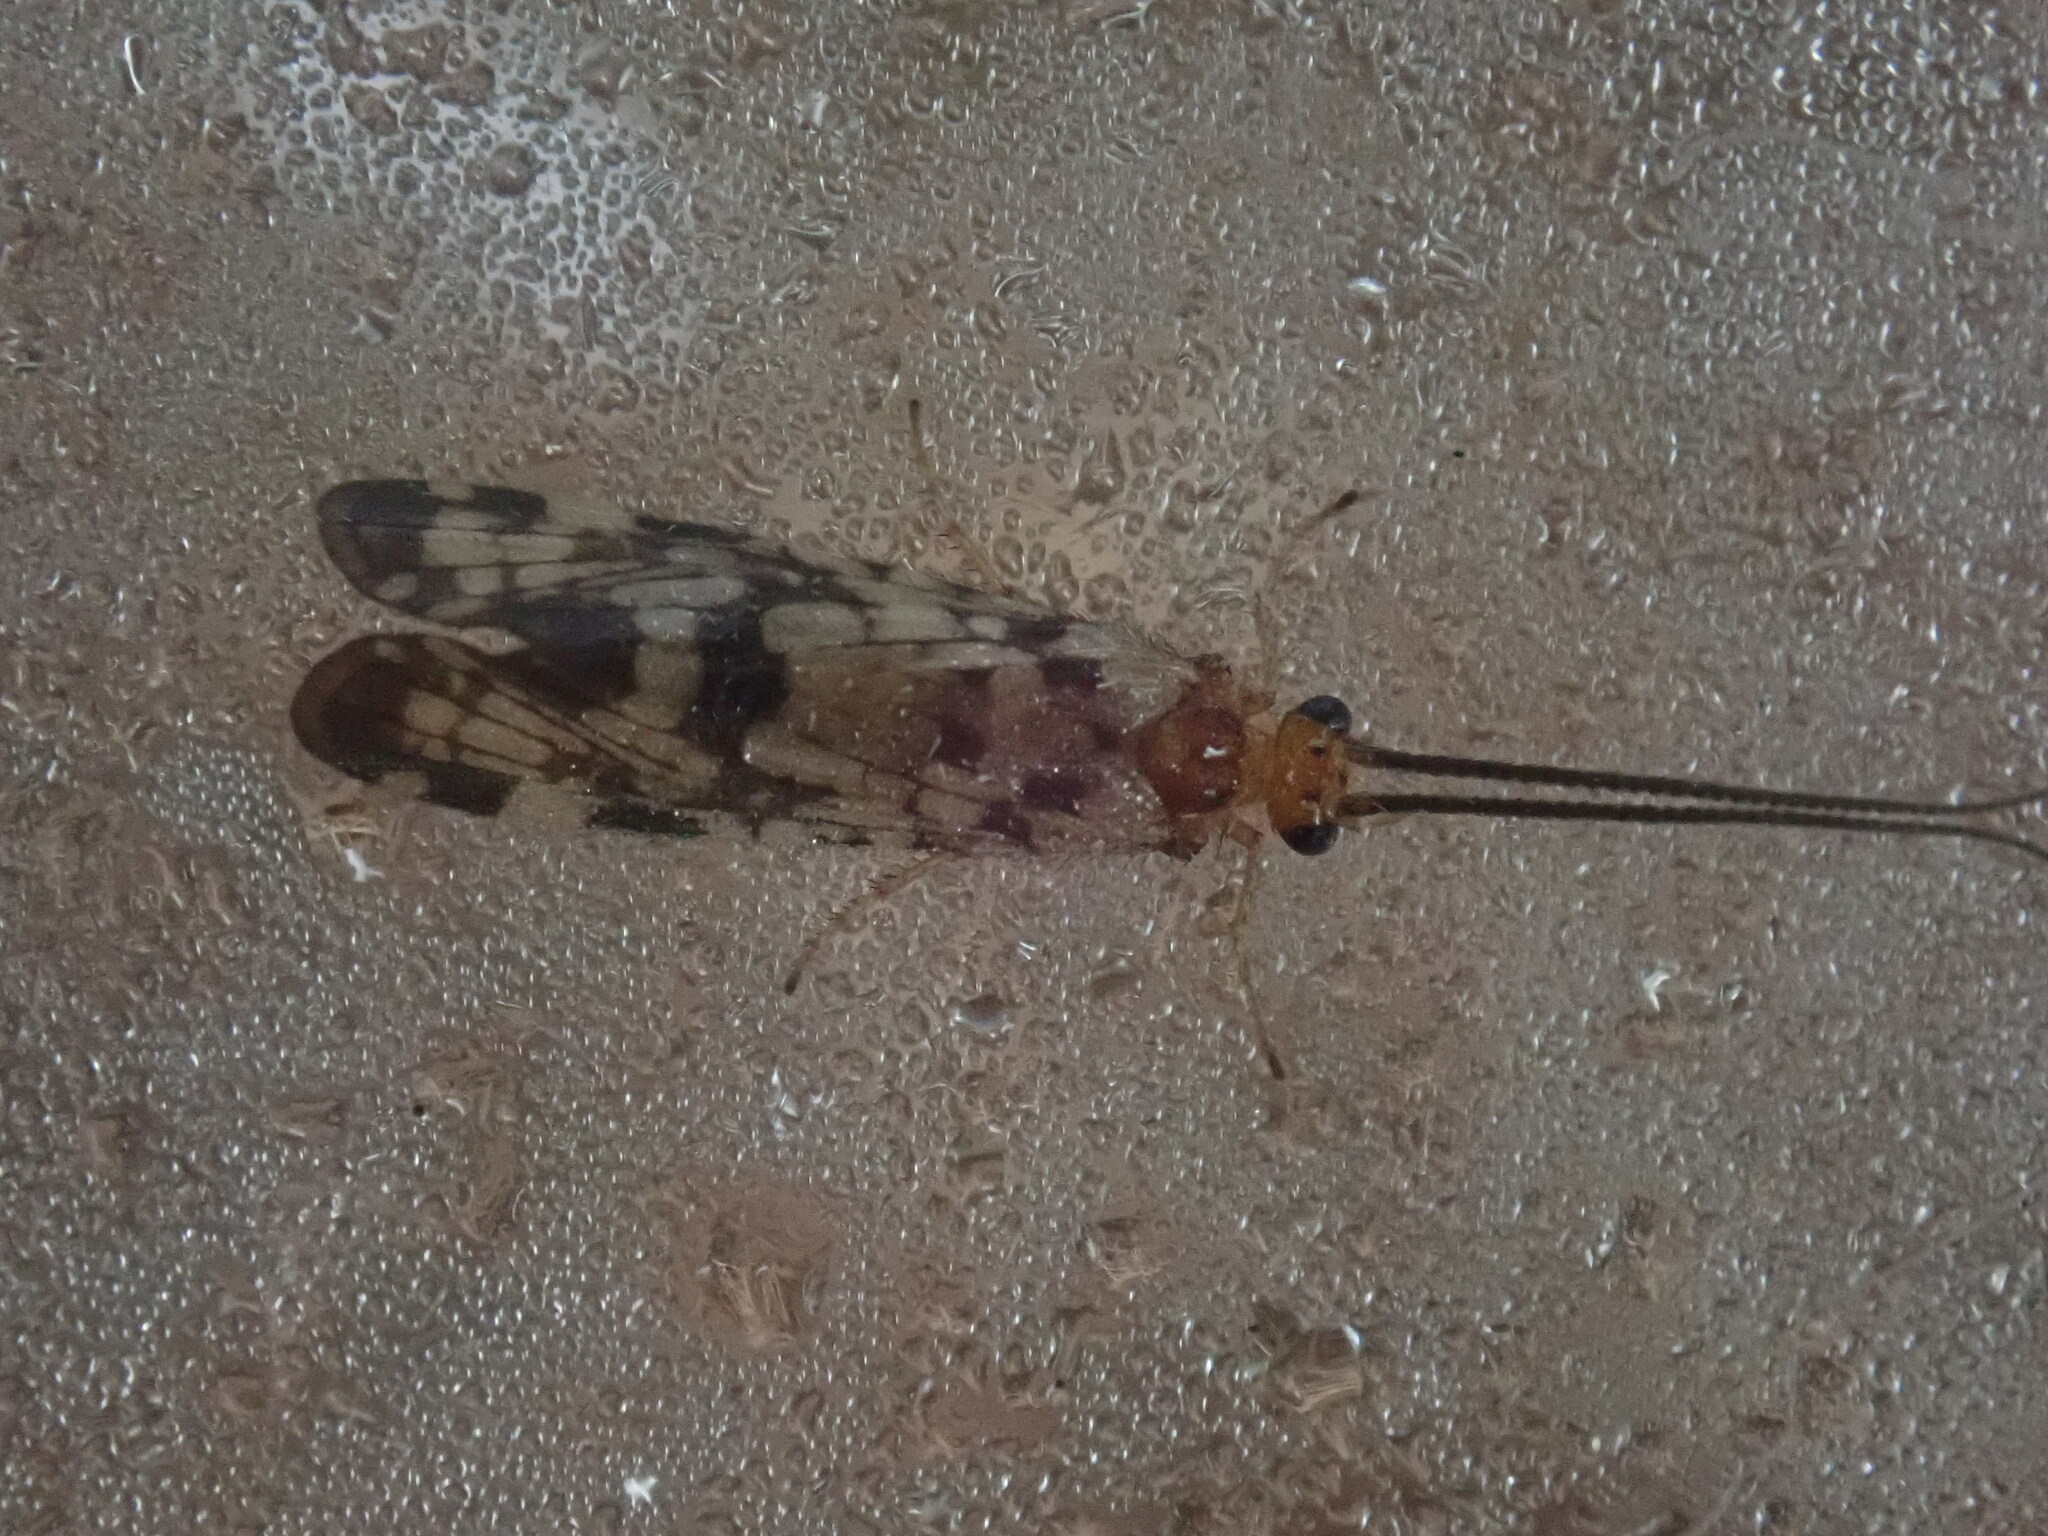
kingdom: Animalia
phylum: Arthropoda
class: Insecta
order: Trichoptera
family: Phryganeidae
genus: Banksiola
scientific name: Banksiola dossuaria
